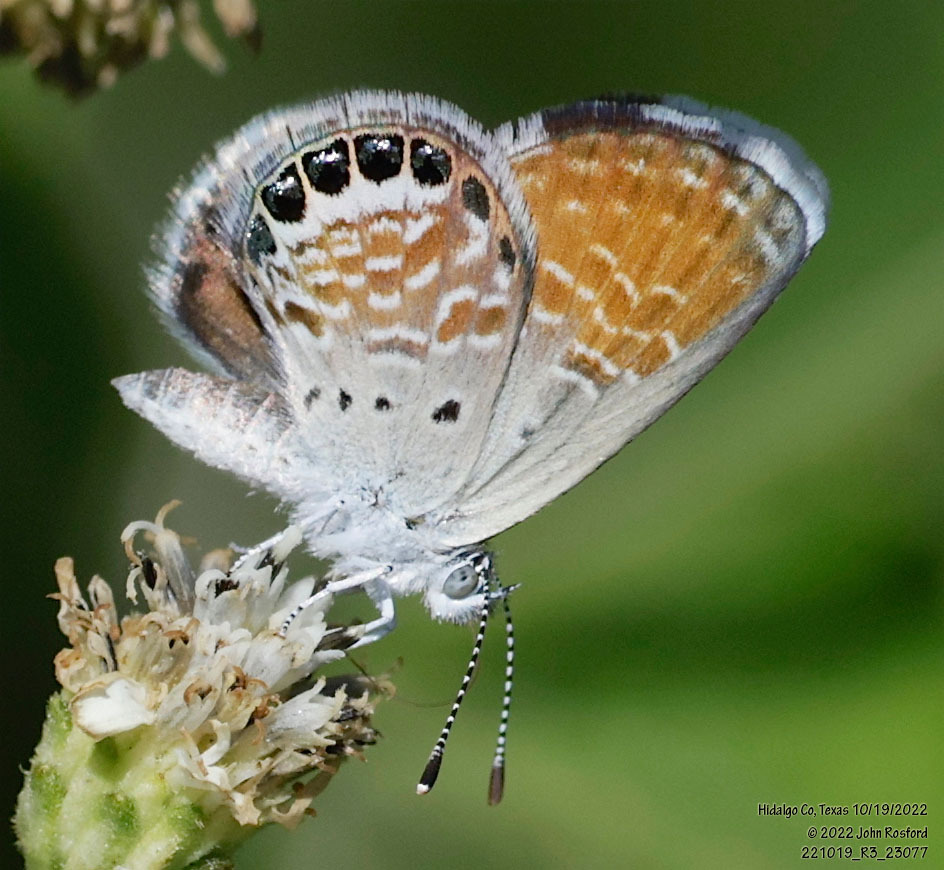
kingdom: Animalia
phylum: Arthropoda
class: Insecta
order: Lepidoptera
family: Lycaenidae
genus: Brephidium
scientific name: Brephidium exilis
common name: Pygmy blue
